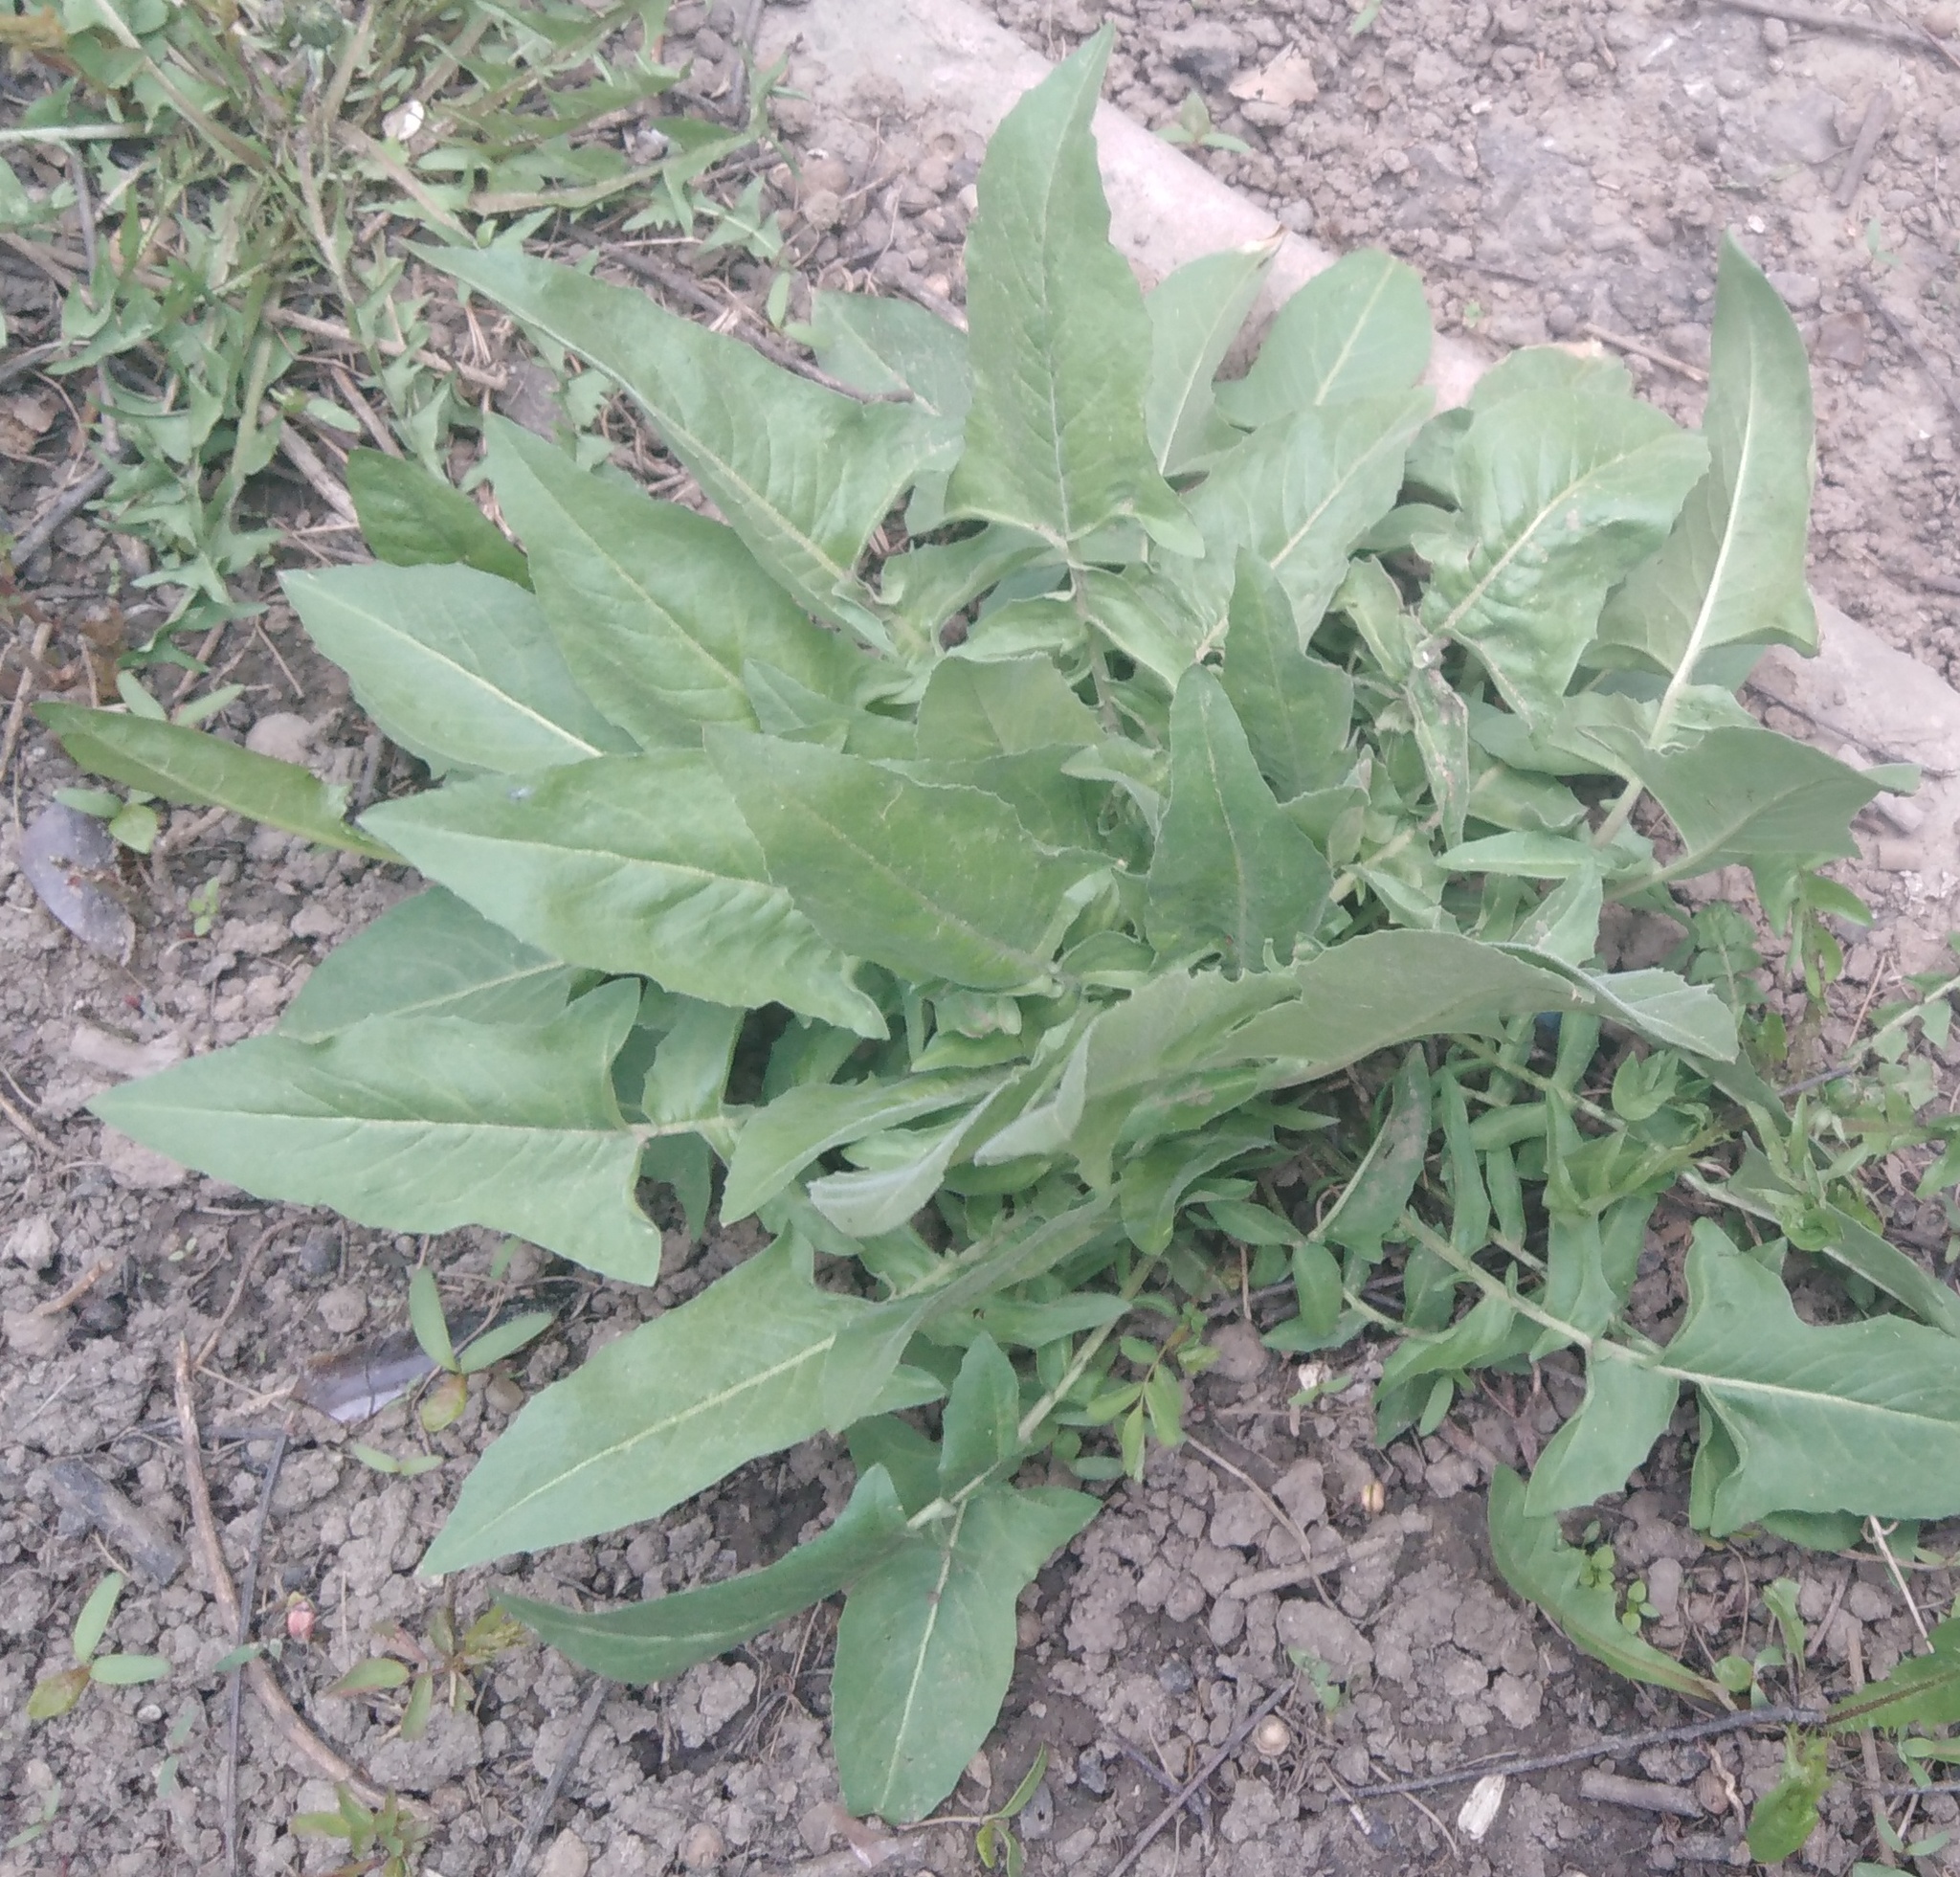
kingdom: Plantae
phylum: Tracheophyta
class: Magnoliopsida
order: Brassicales
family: Brassicaceae
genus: Bunias
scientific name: Bunias orientalis
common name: Warty-cabbage
